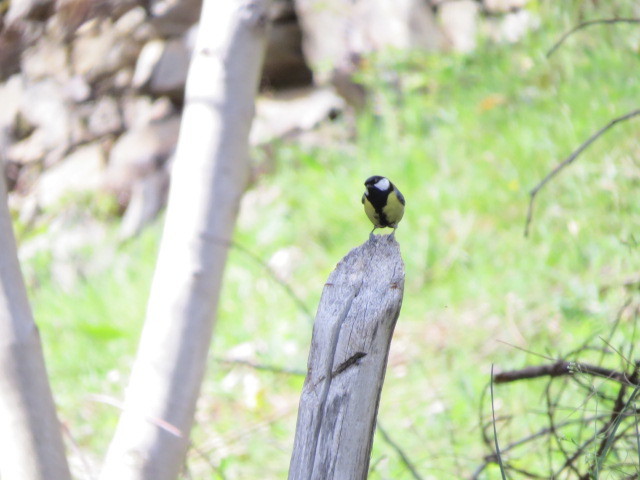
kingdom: Animalia
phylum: Chordata
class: Aves
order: Passeriformes
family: Paridae
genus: Parus
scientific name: Parus major
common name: Great tit
